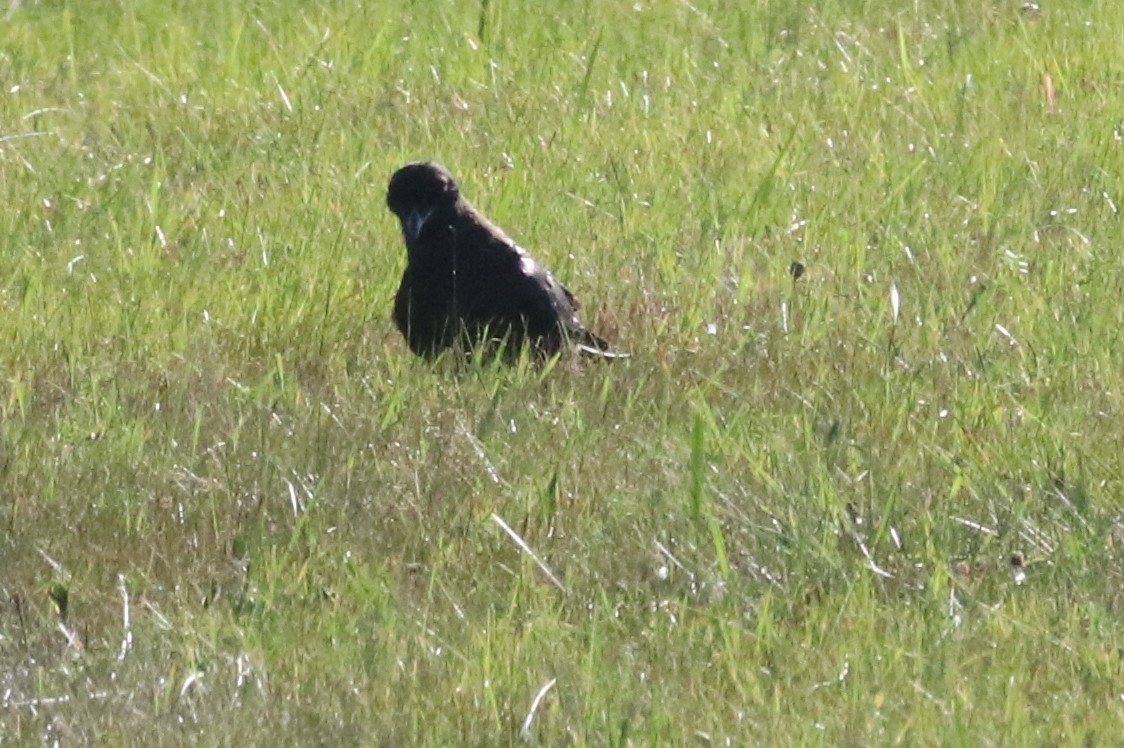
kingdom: Animalia
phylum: Chordata
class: Aves
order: Passeriformes
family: Corvidae
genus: Corvus
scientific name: Corvus brachyrhynchos
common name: American crow
